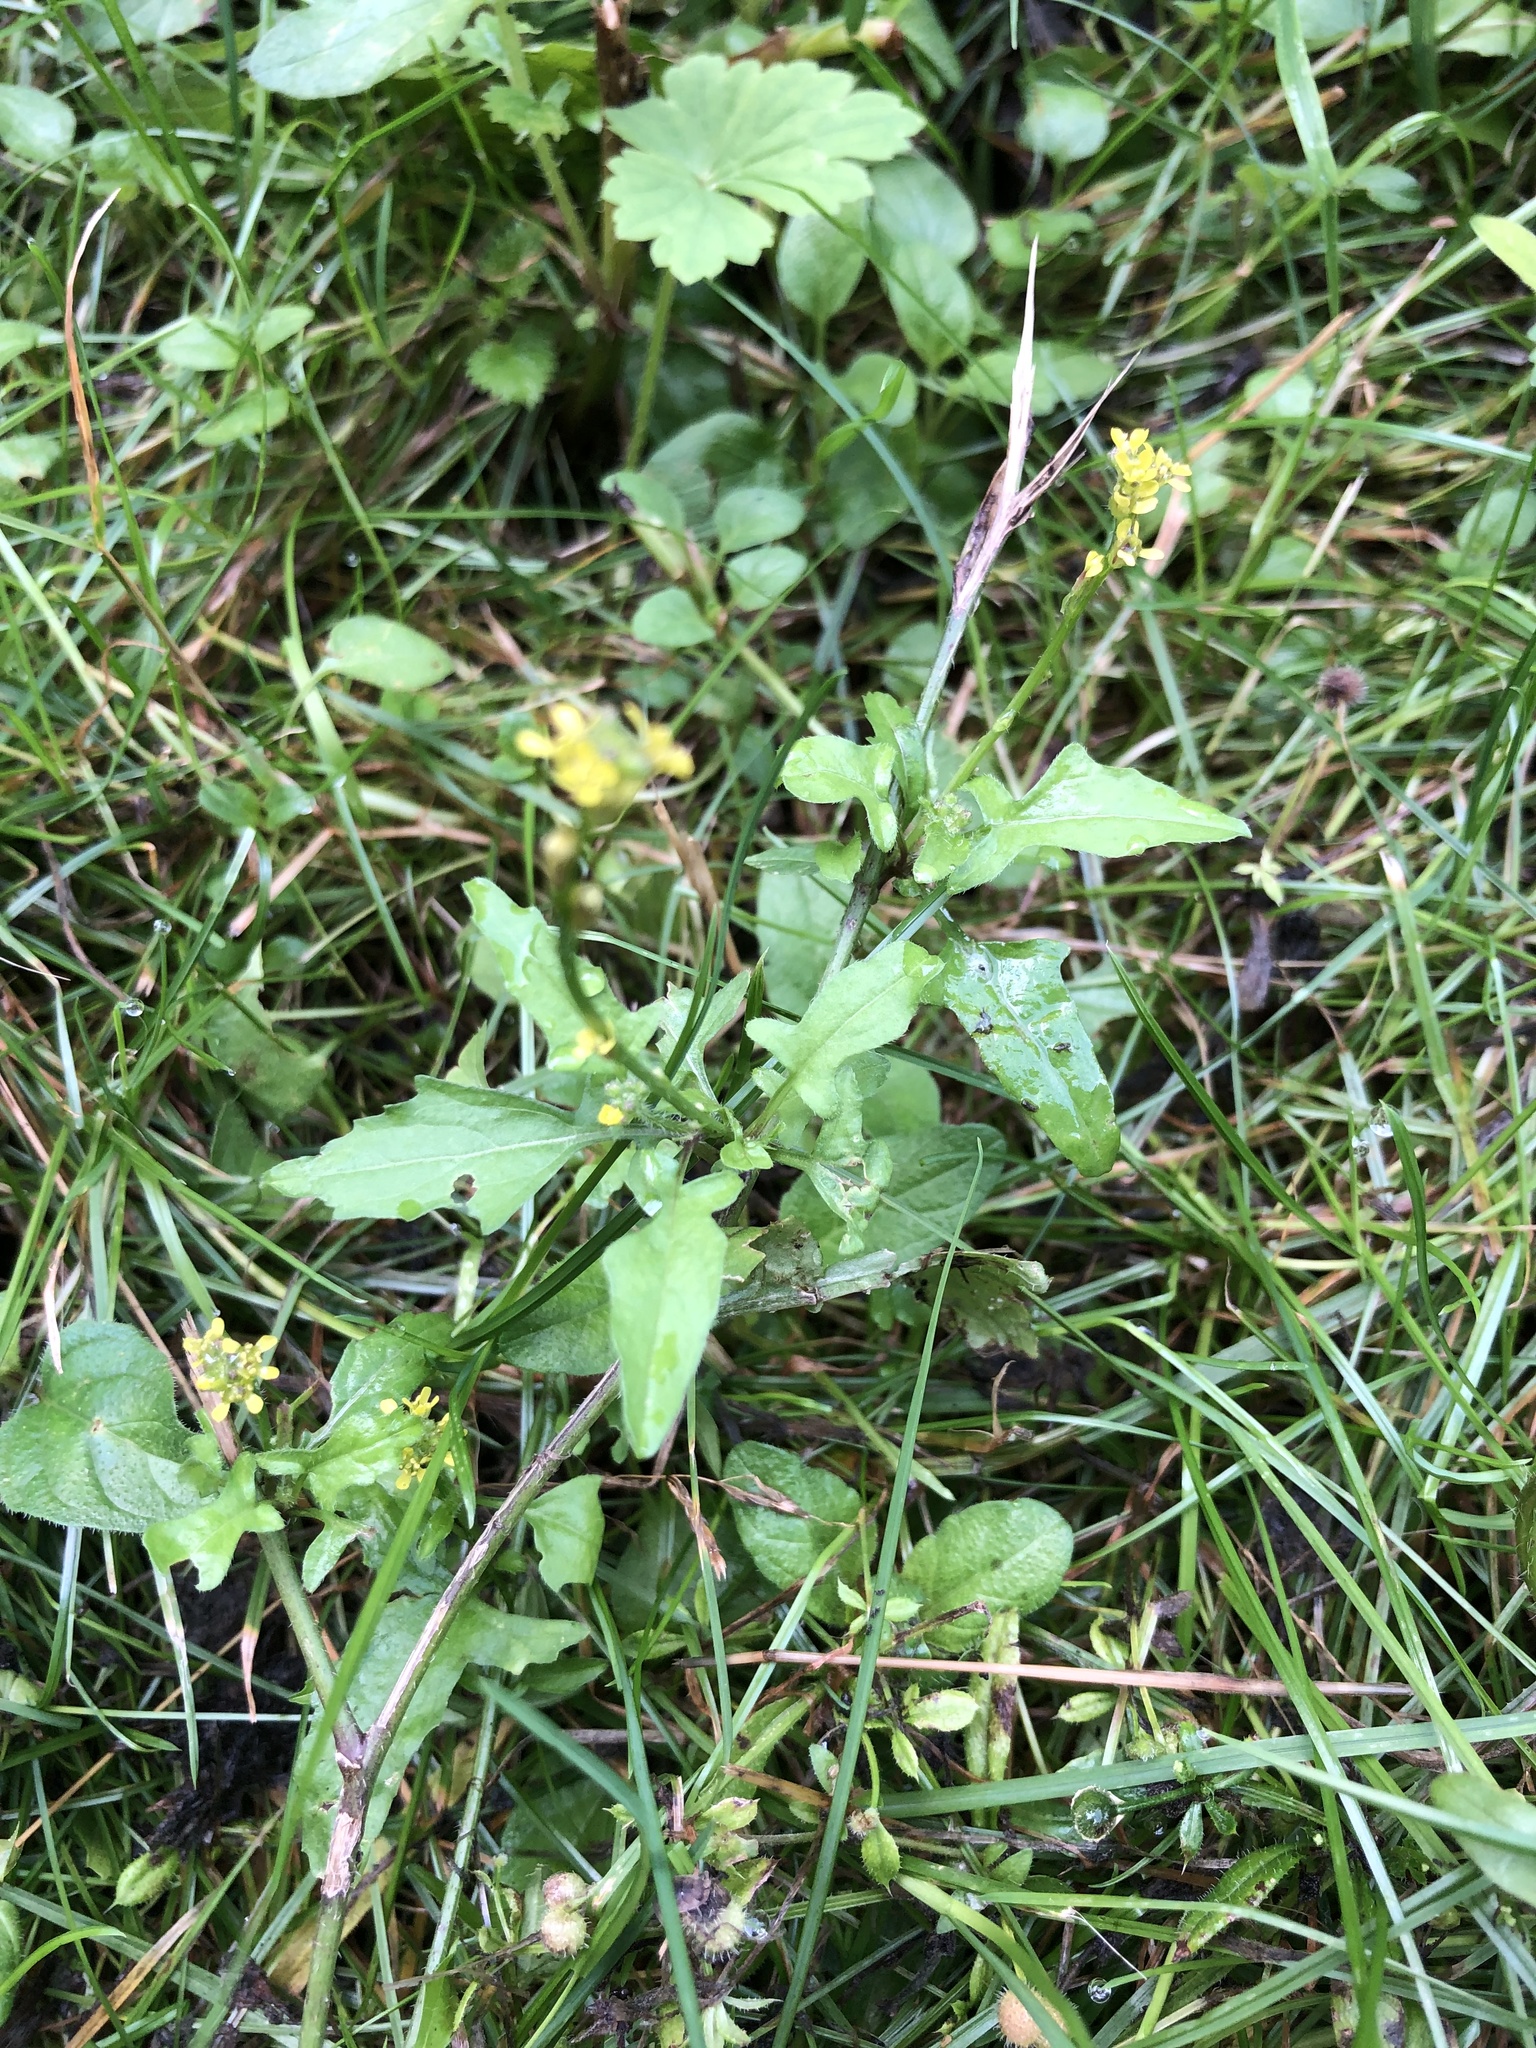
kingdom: Plantae
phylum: Tracheophyta
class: Magnoliopsida
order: Brassicales
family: Brassicaceae
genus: Sisymbrium
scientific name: Sisymbrium officinale
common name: Hedge mustard
